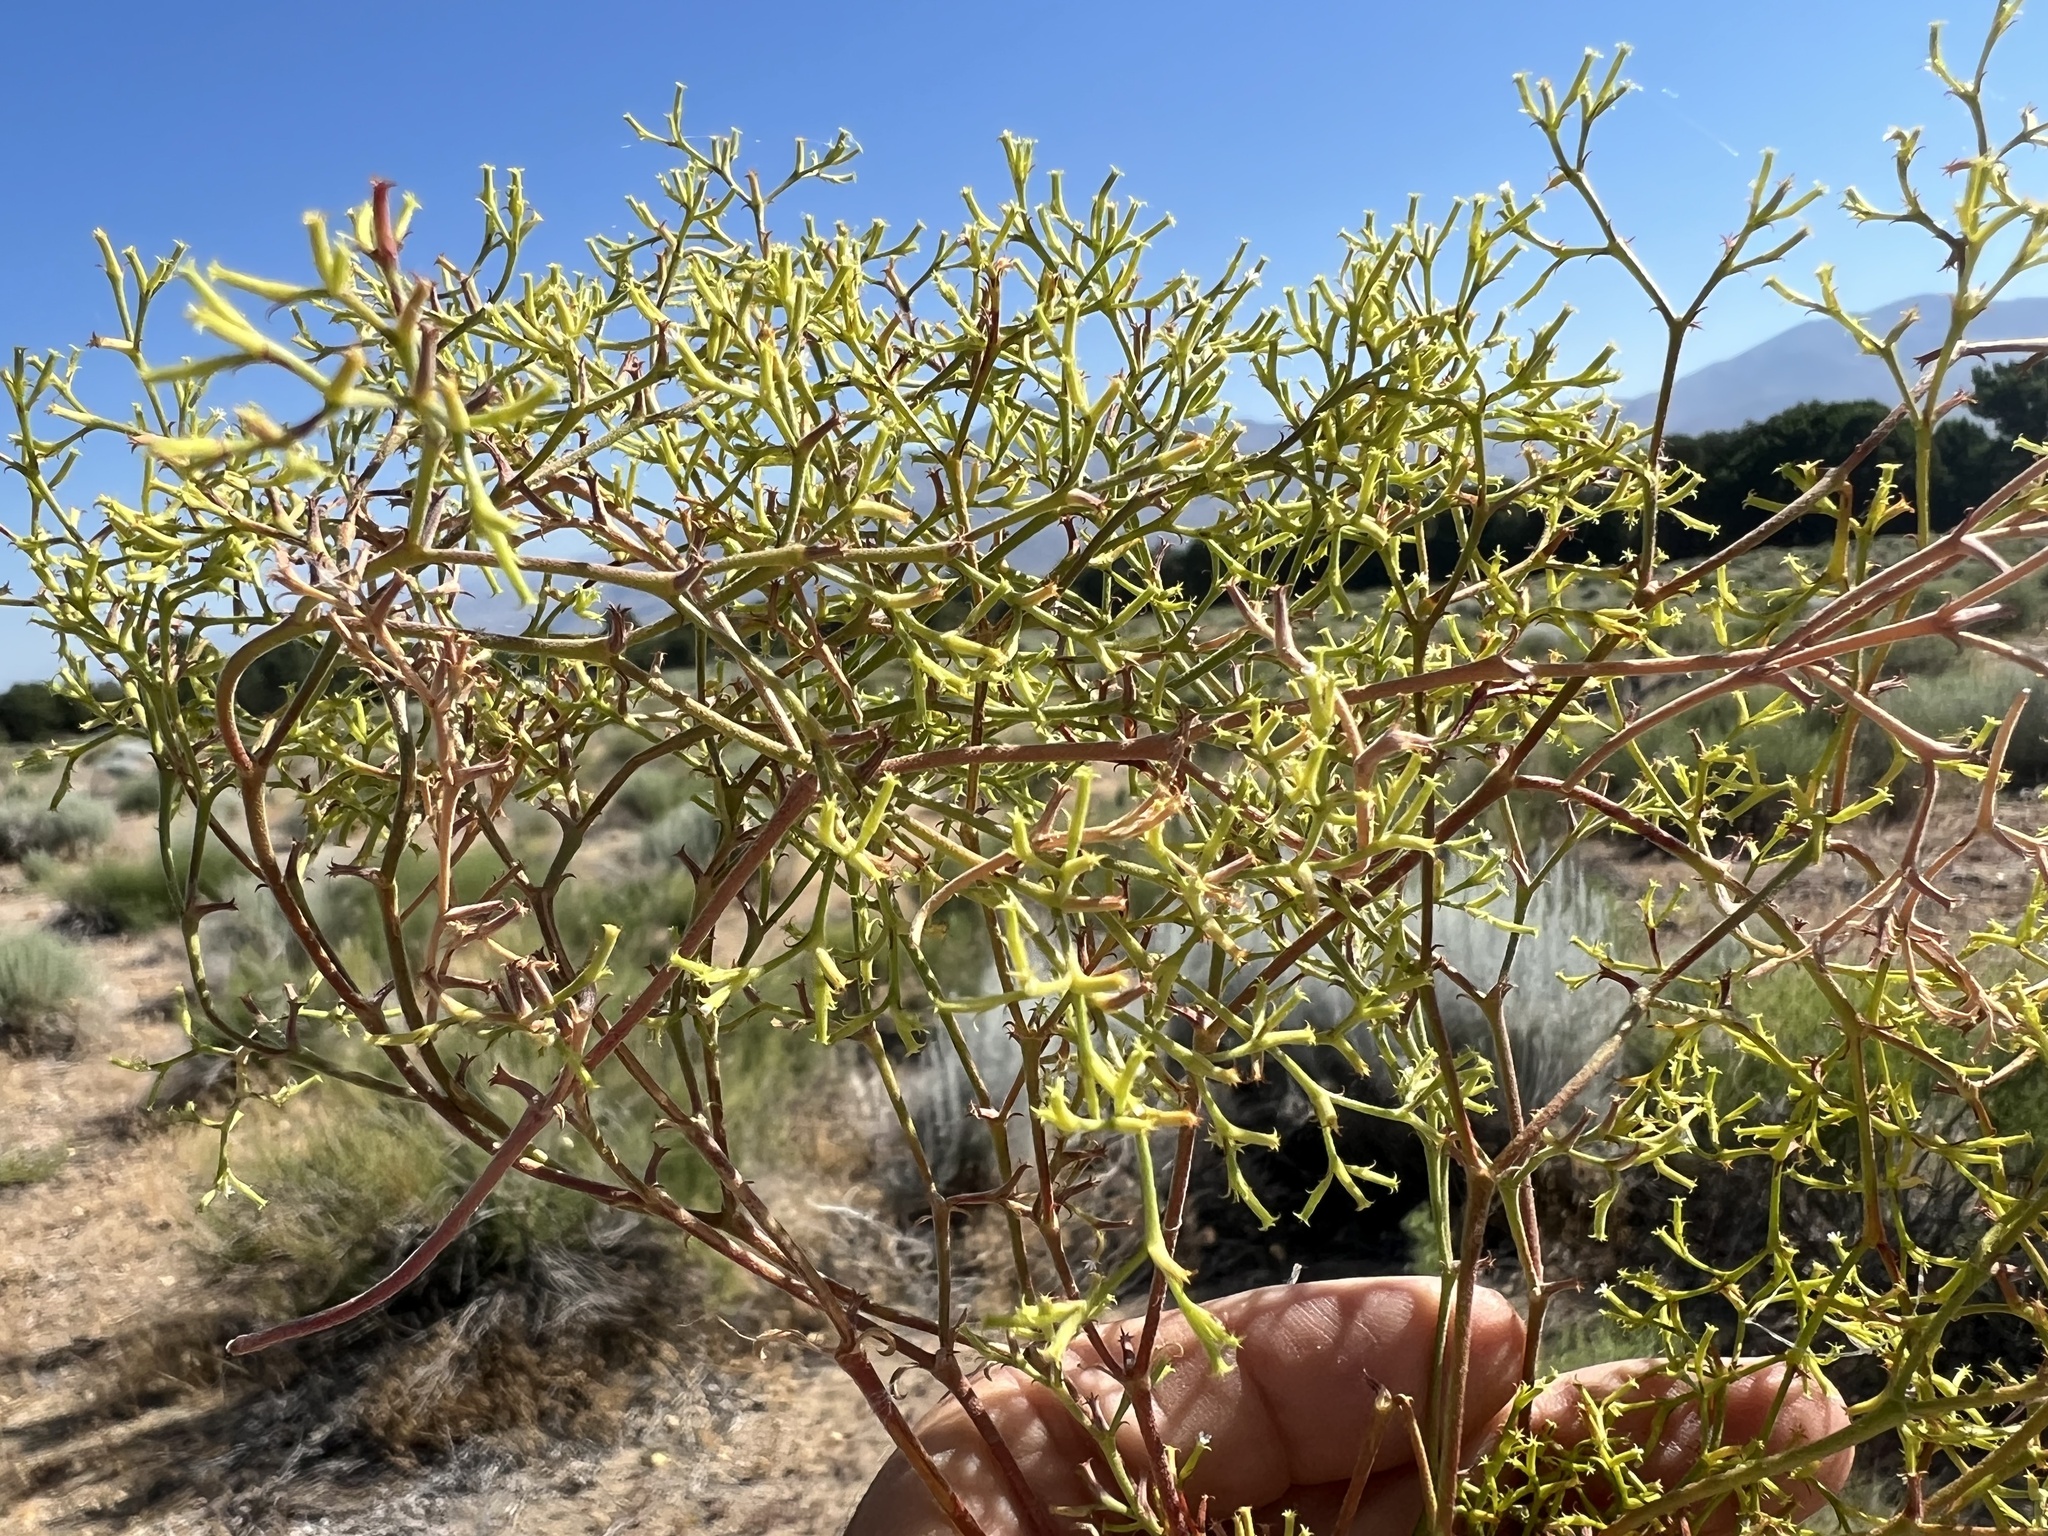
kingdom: Plantae
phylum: Tracheophyta
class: Magnoliopsida
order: Caryophyllales
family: Polygonaceae
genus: Chorizanthe
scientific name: Chorizanthe brevicornu
